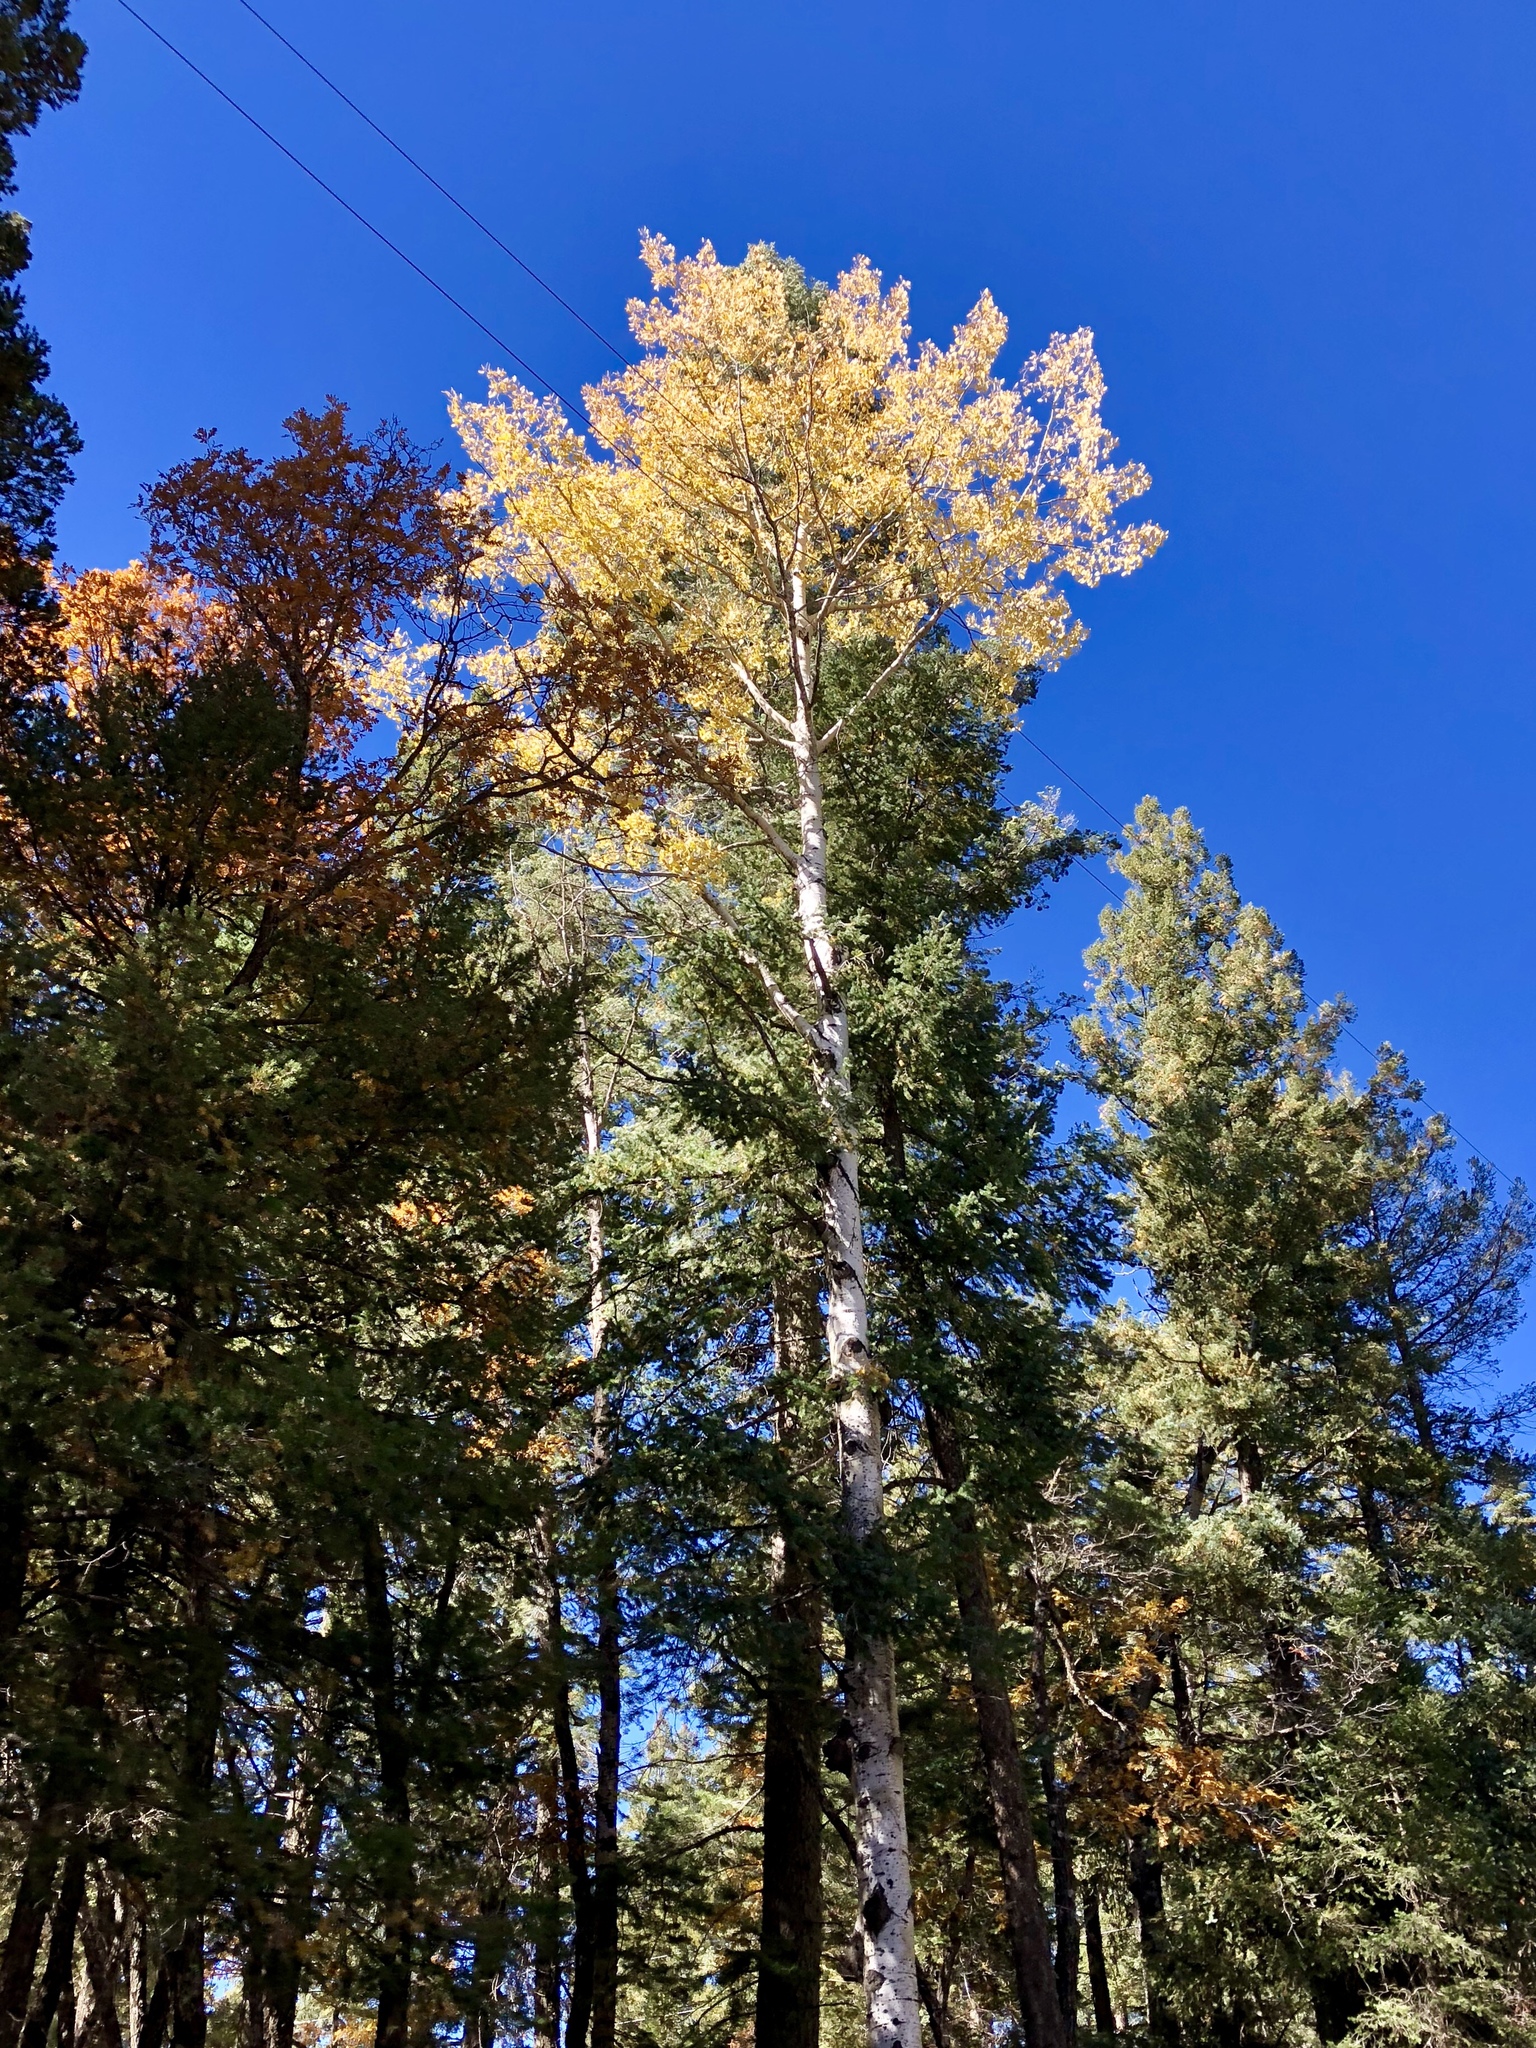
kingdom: Plantae
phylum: Tracheophyta
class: Magnoliopsida
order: Malpighiales
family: Salicaceae
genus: Populus
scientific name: Populus tremuloides
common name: Quaking aspen
